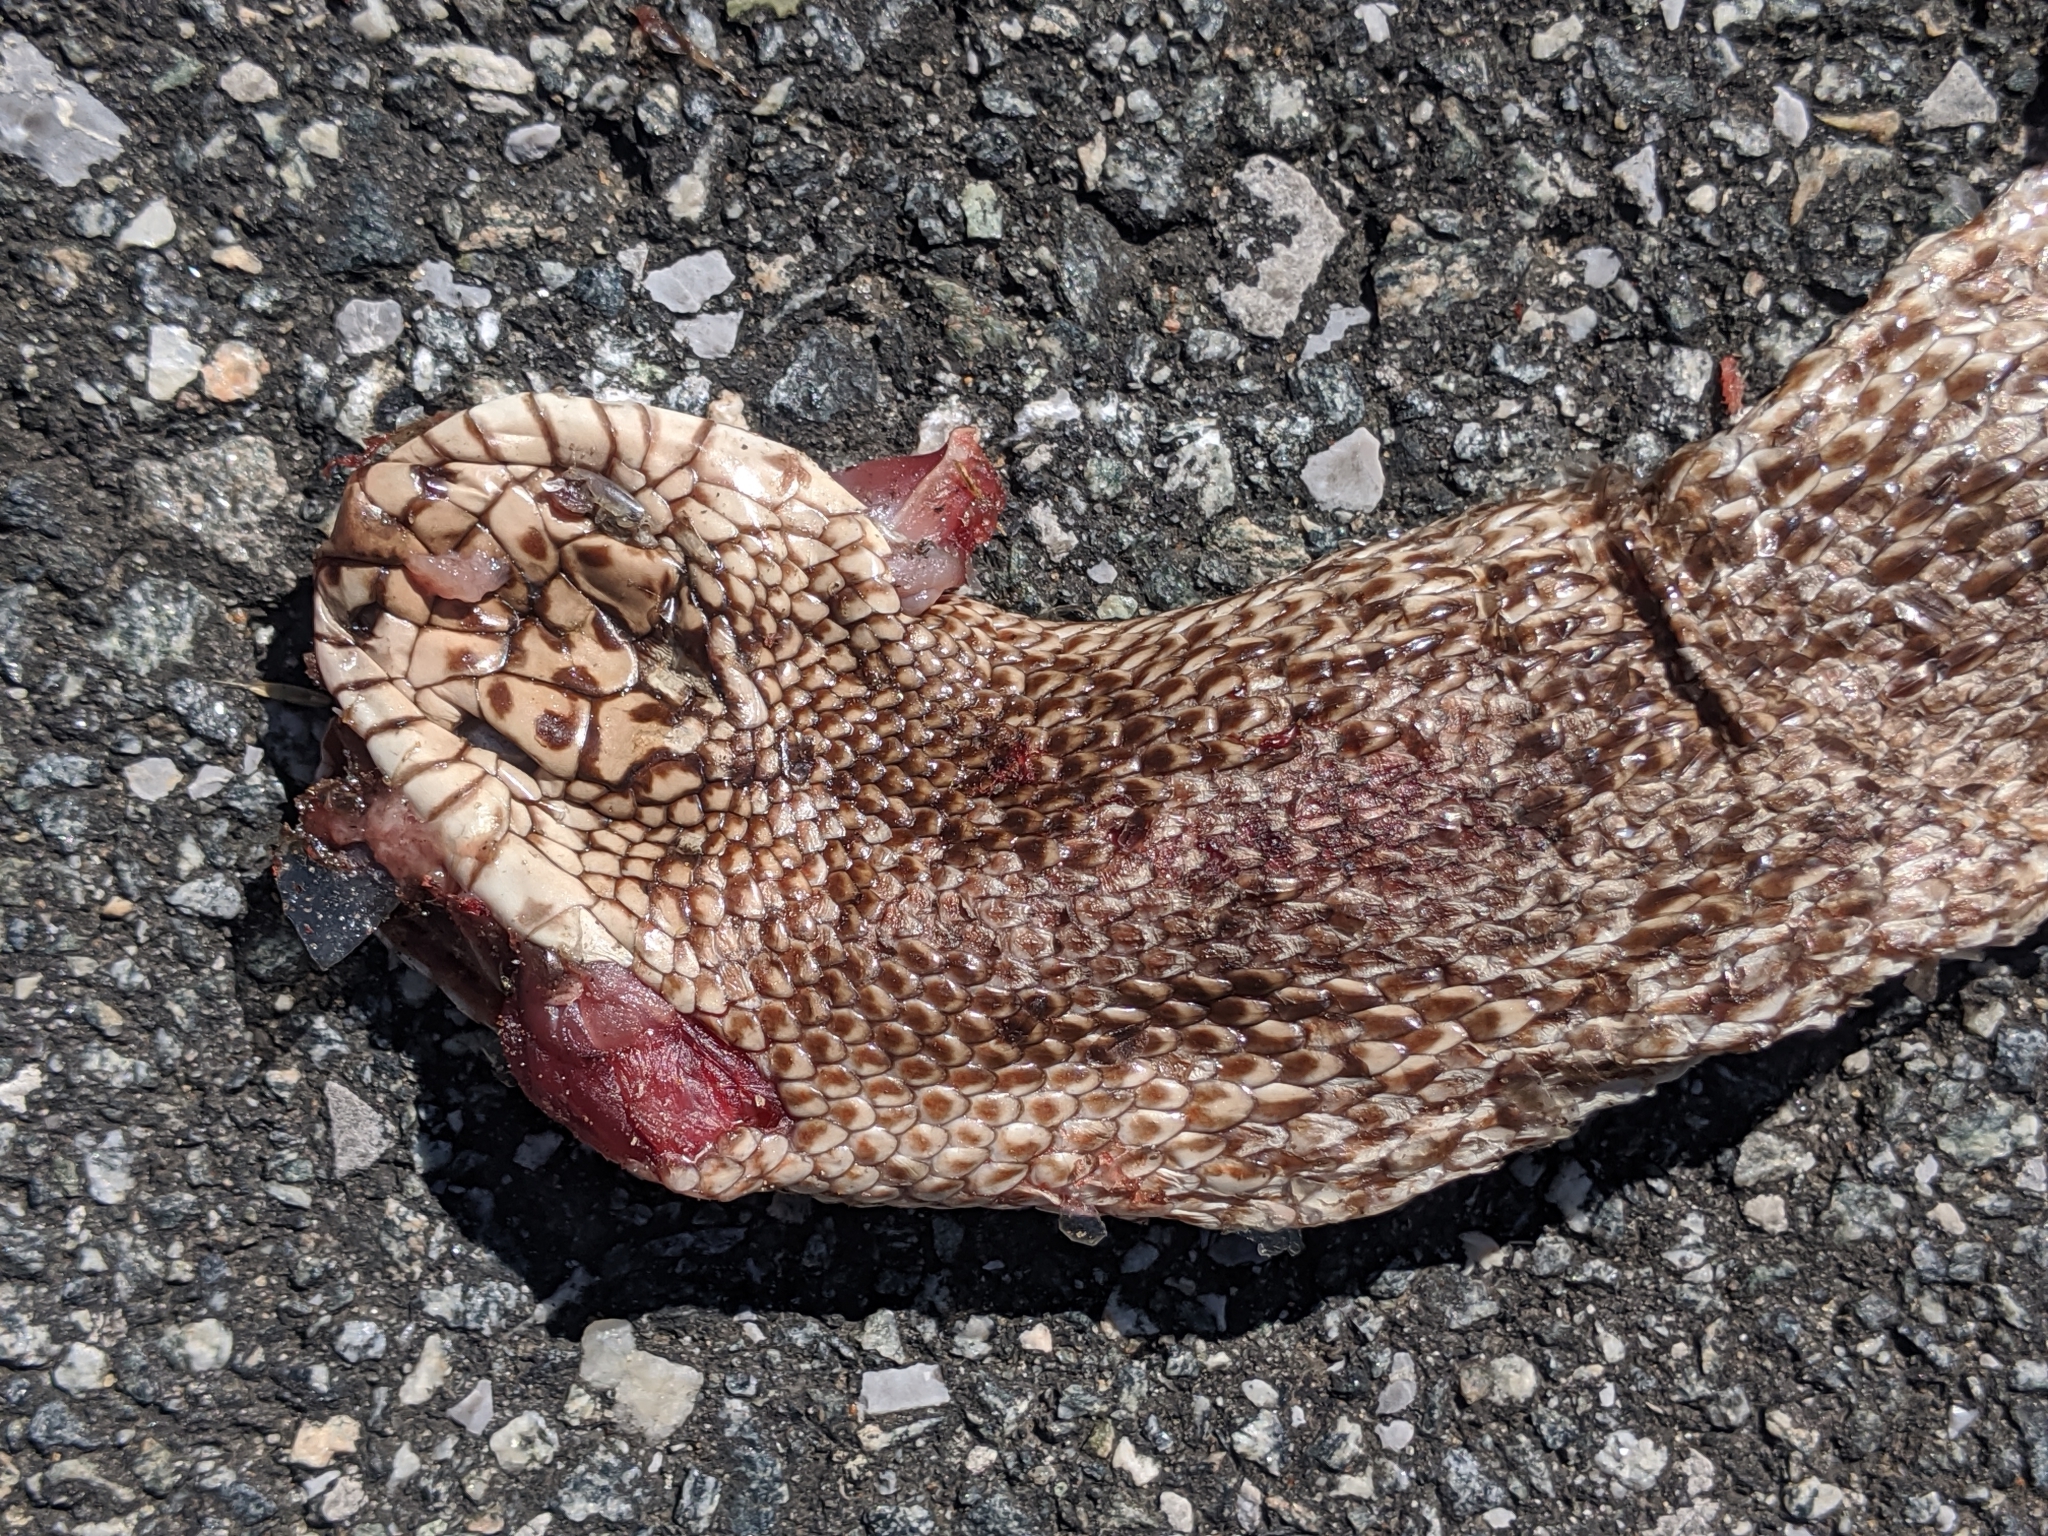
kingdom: Animalia
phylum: Chordata
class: Squamata
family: Colubridae
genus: Pituophis
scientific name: Pituophis melanoleucus
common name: Pine snake
